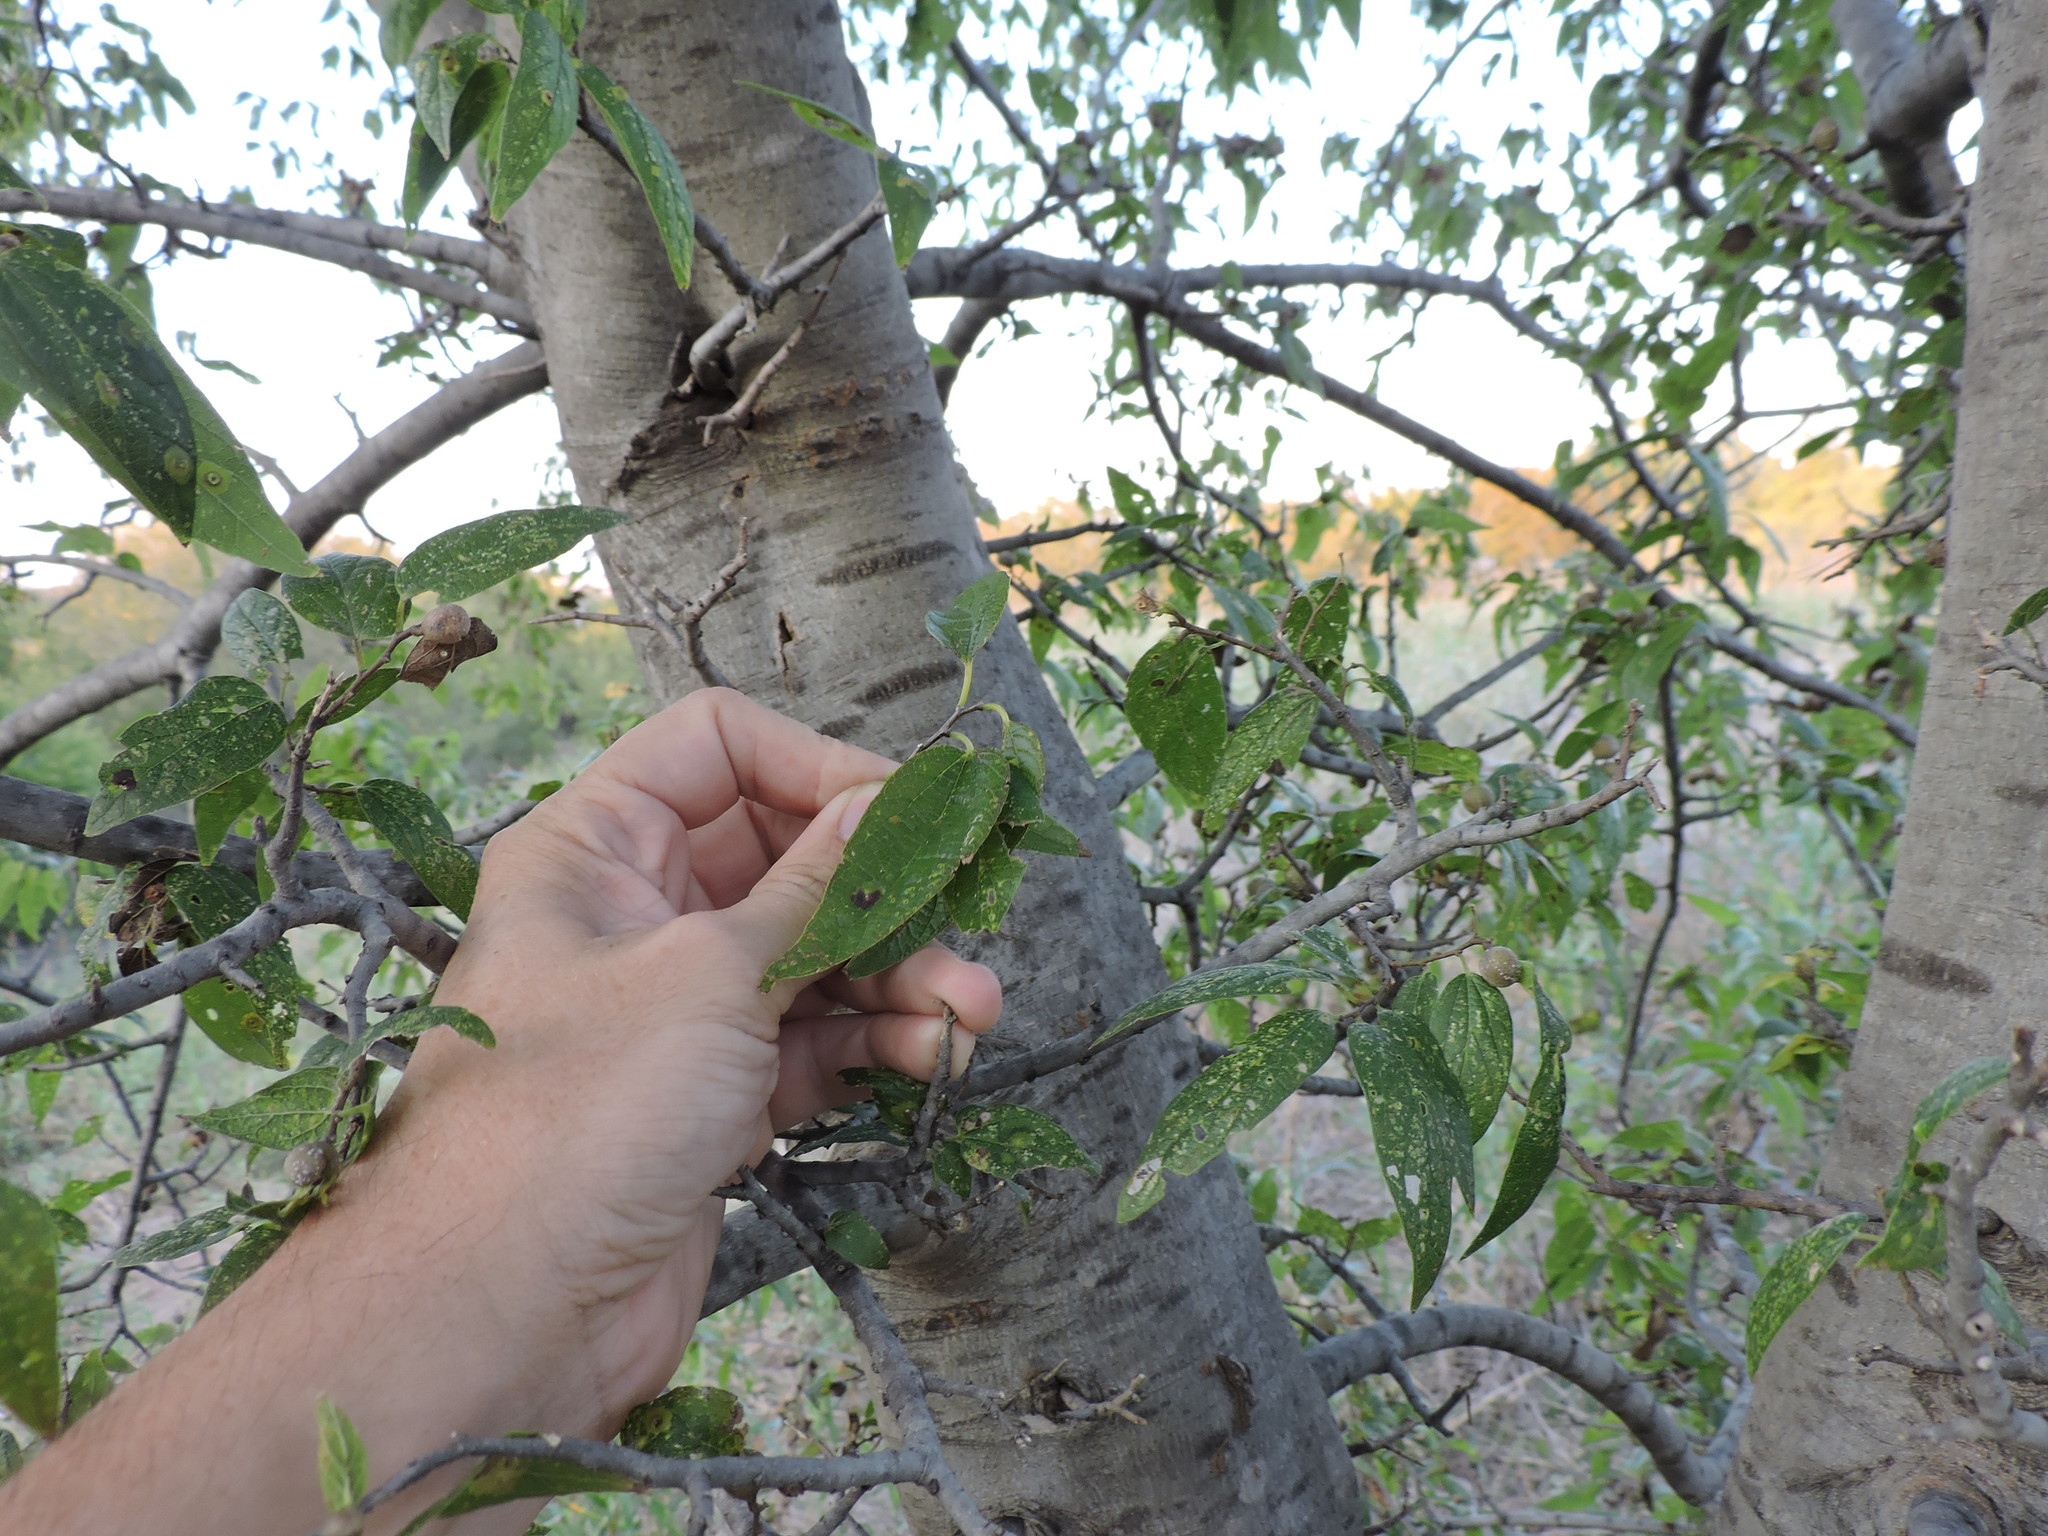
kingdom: Plantae
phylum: Tracheophyta
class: Magnoliopsida
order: Rosales
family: Cannabaceae
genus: Celtis
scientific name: Celtis laevigata
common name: Sugarberry
